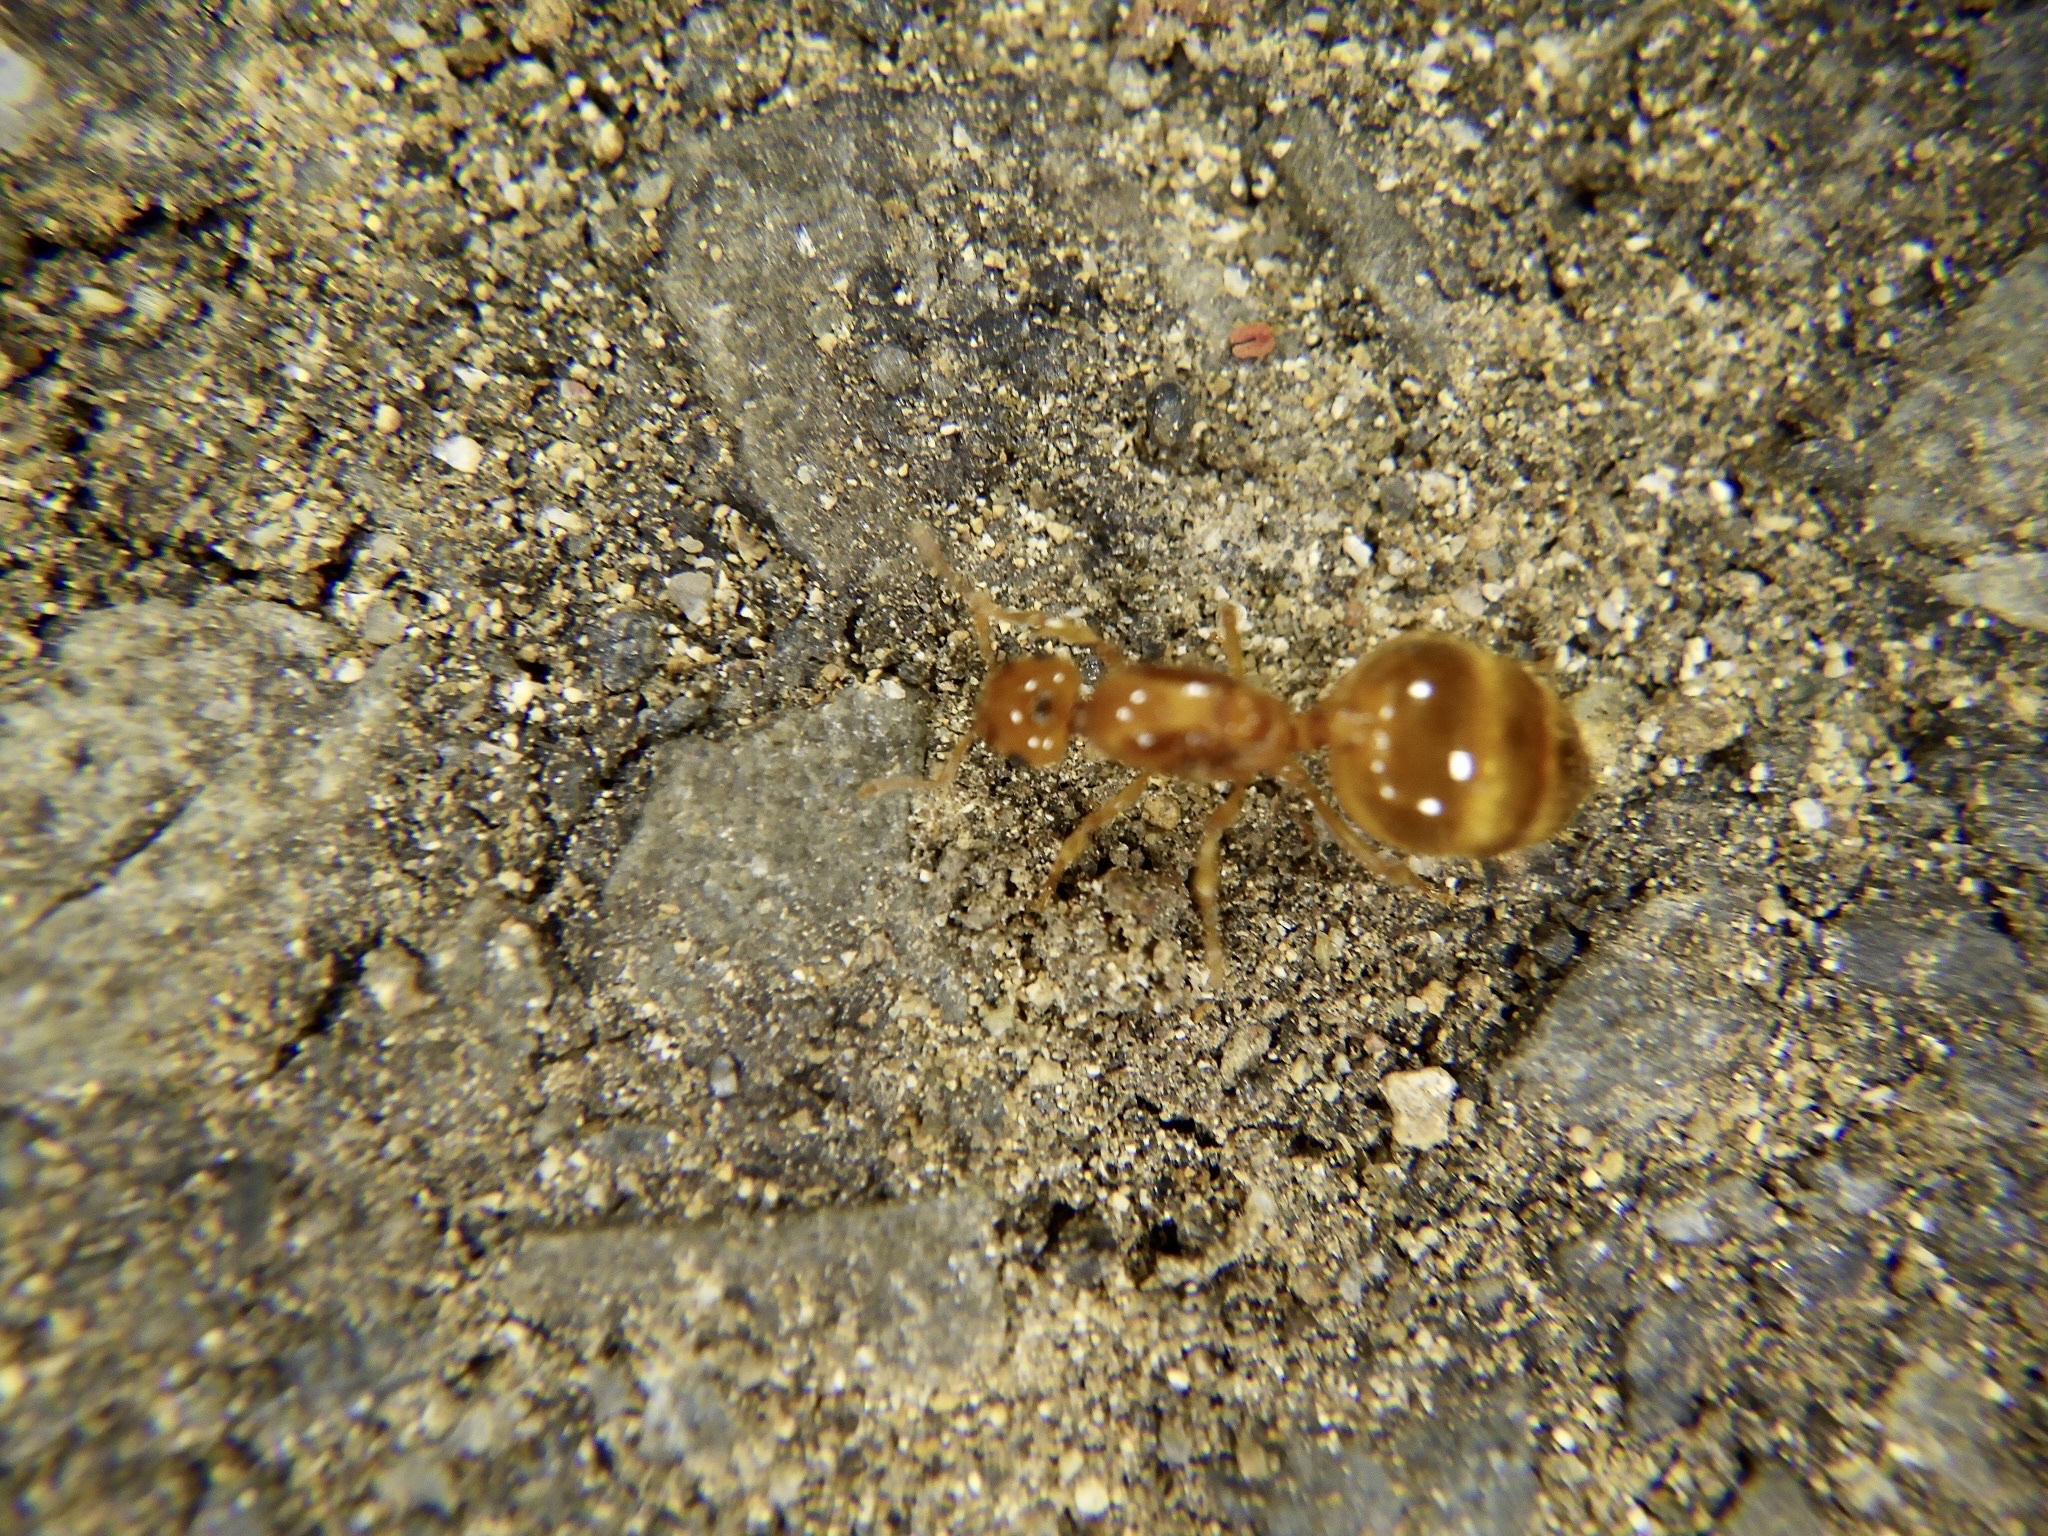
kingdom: Animalia
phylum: Arthropoda
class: Insecta
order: Hymenoptera
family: Formicidae
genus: Crematogaster
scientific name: Crematogaster osakensis
